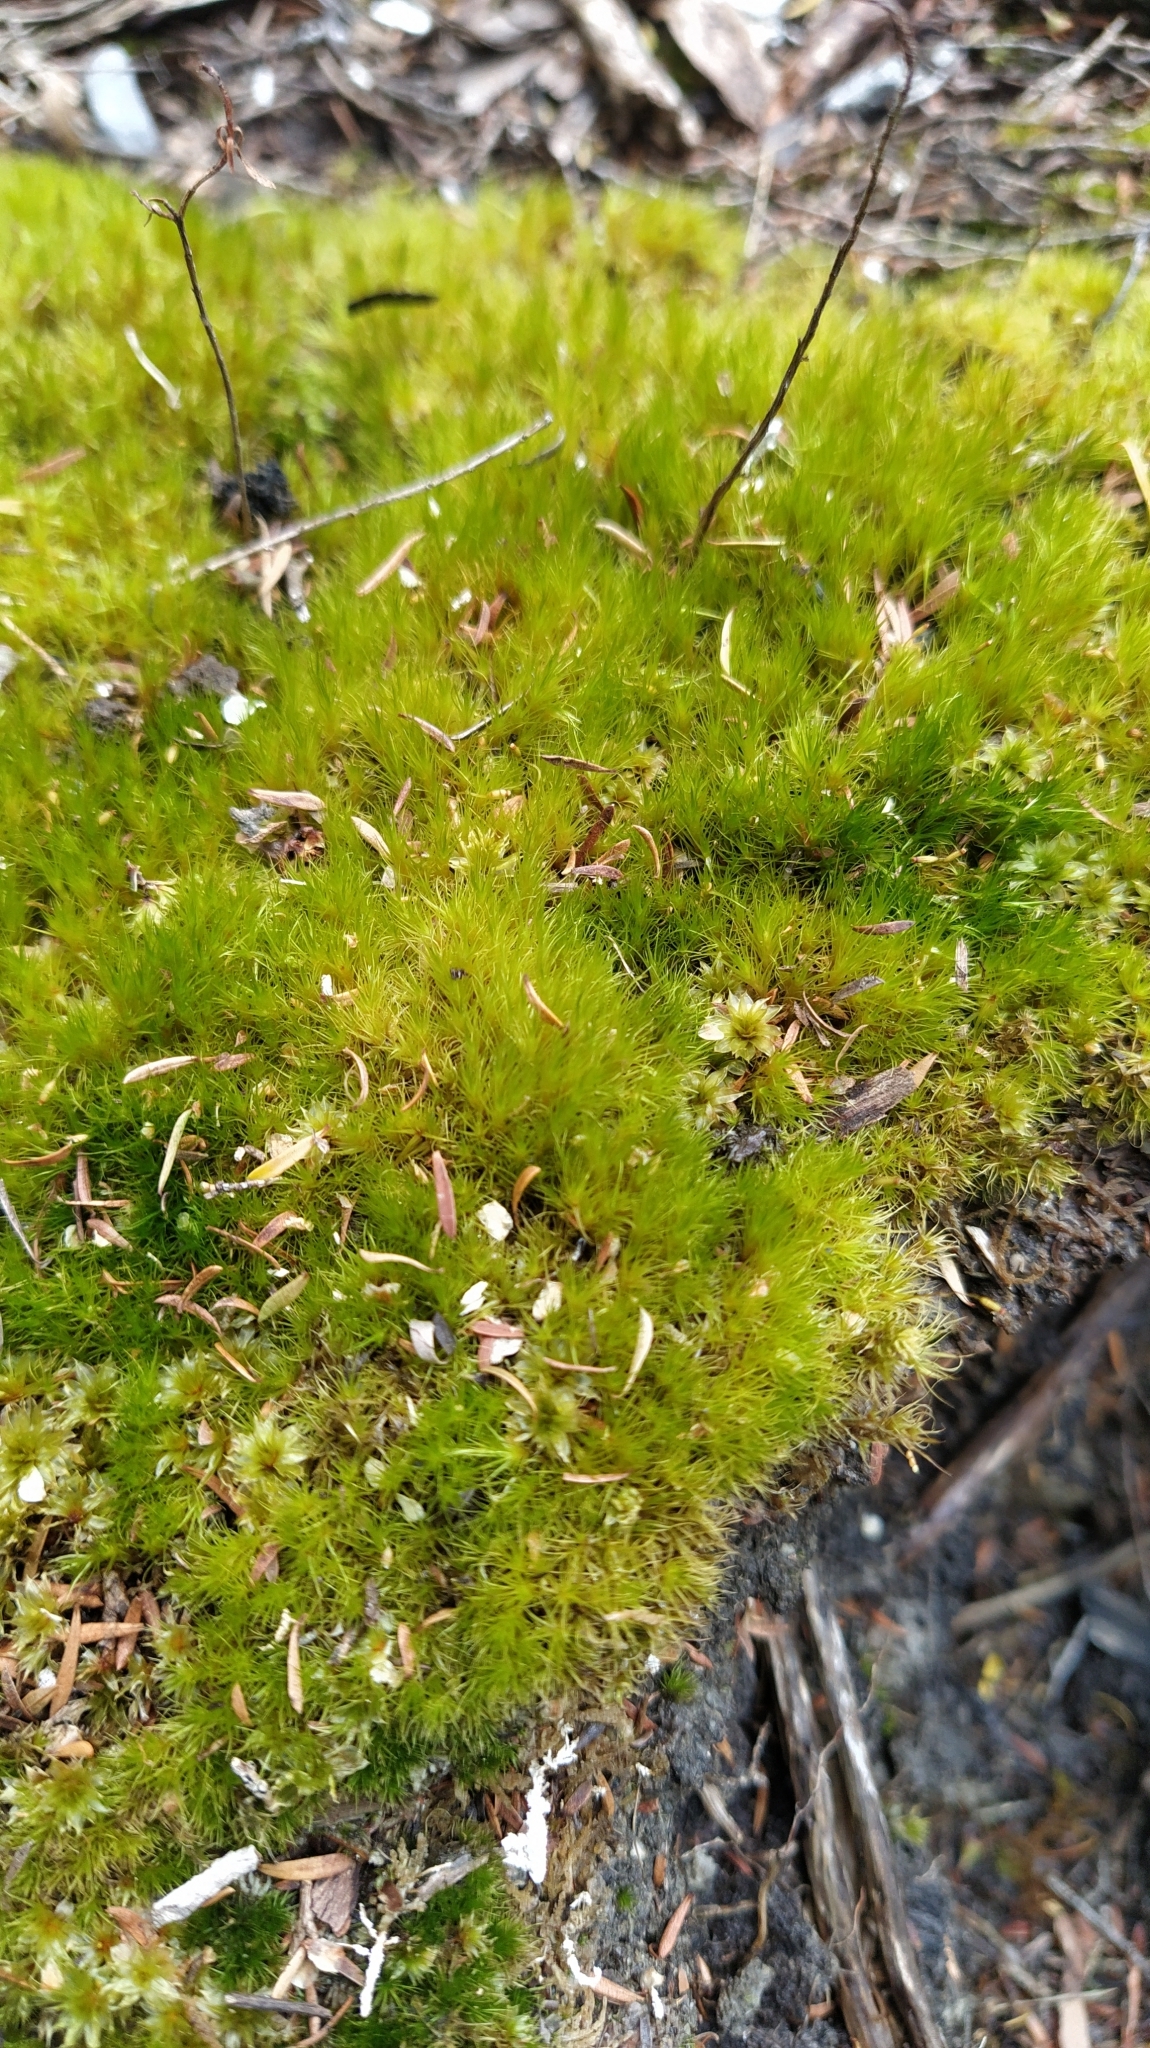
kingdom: Plantae
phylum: Bryophyta
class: Bryopsida
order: Dicranales
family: Leucobryaceae
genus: Campylopus
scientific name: Campylopus pyriformis
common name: Dwarf swan-neck moss
